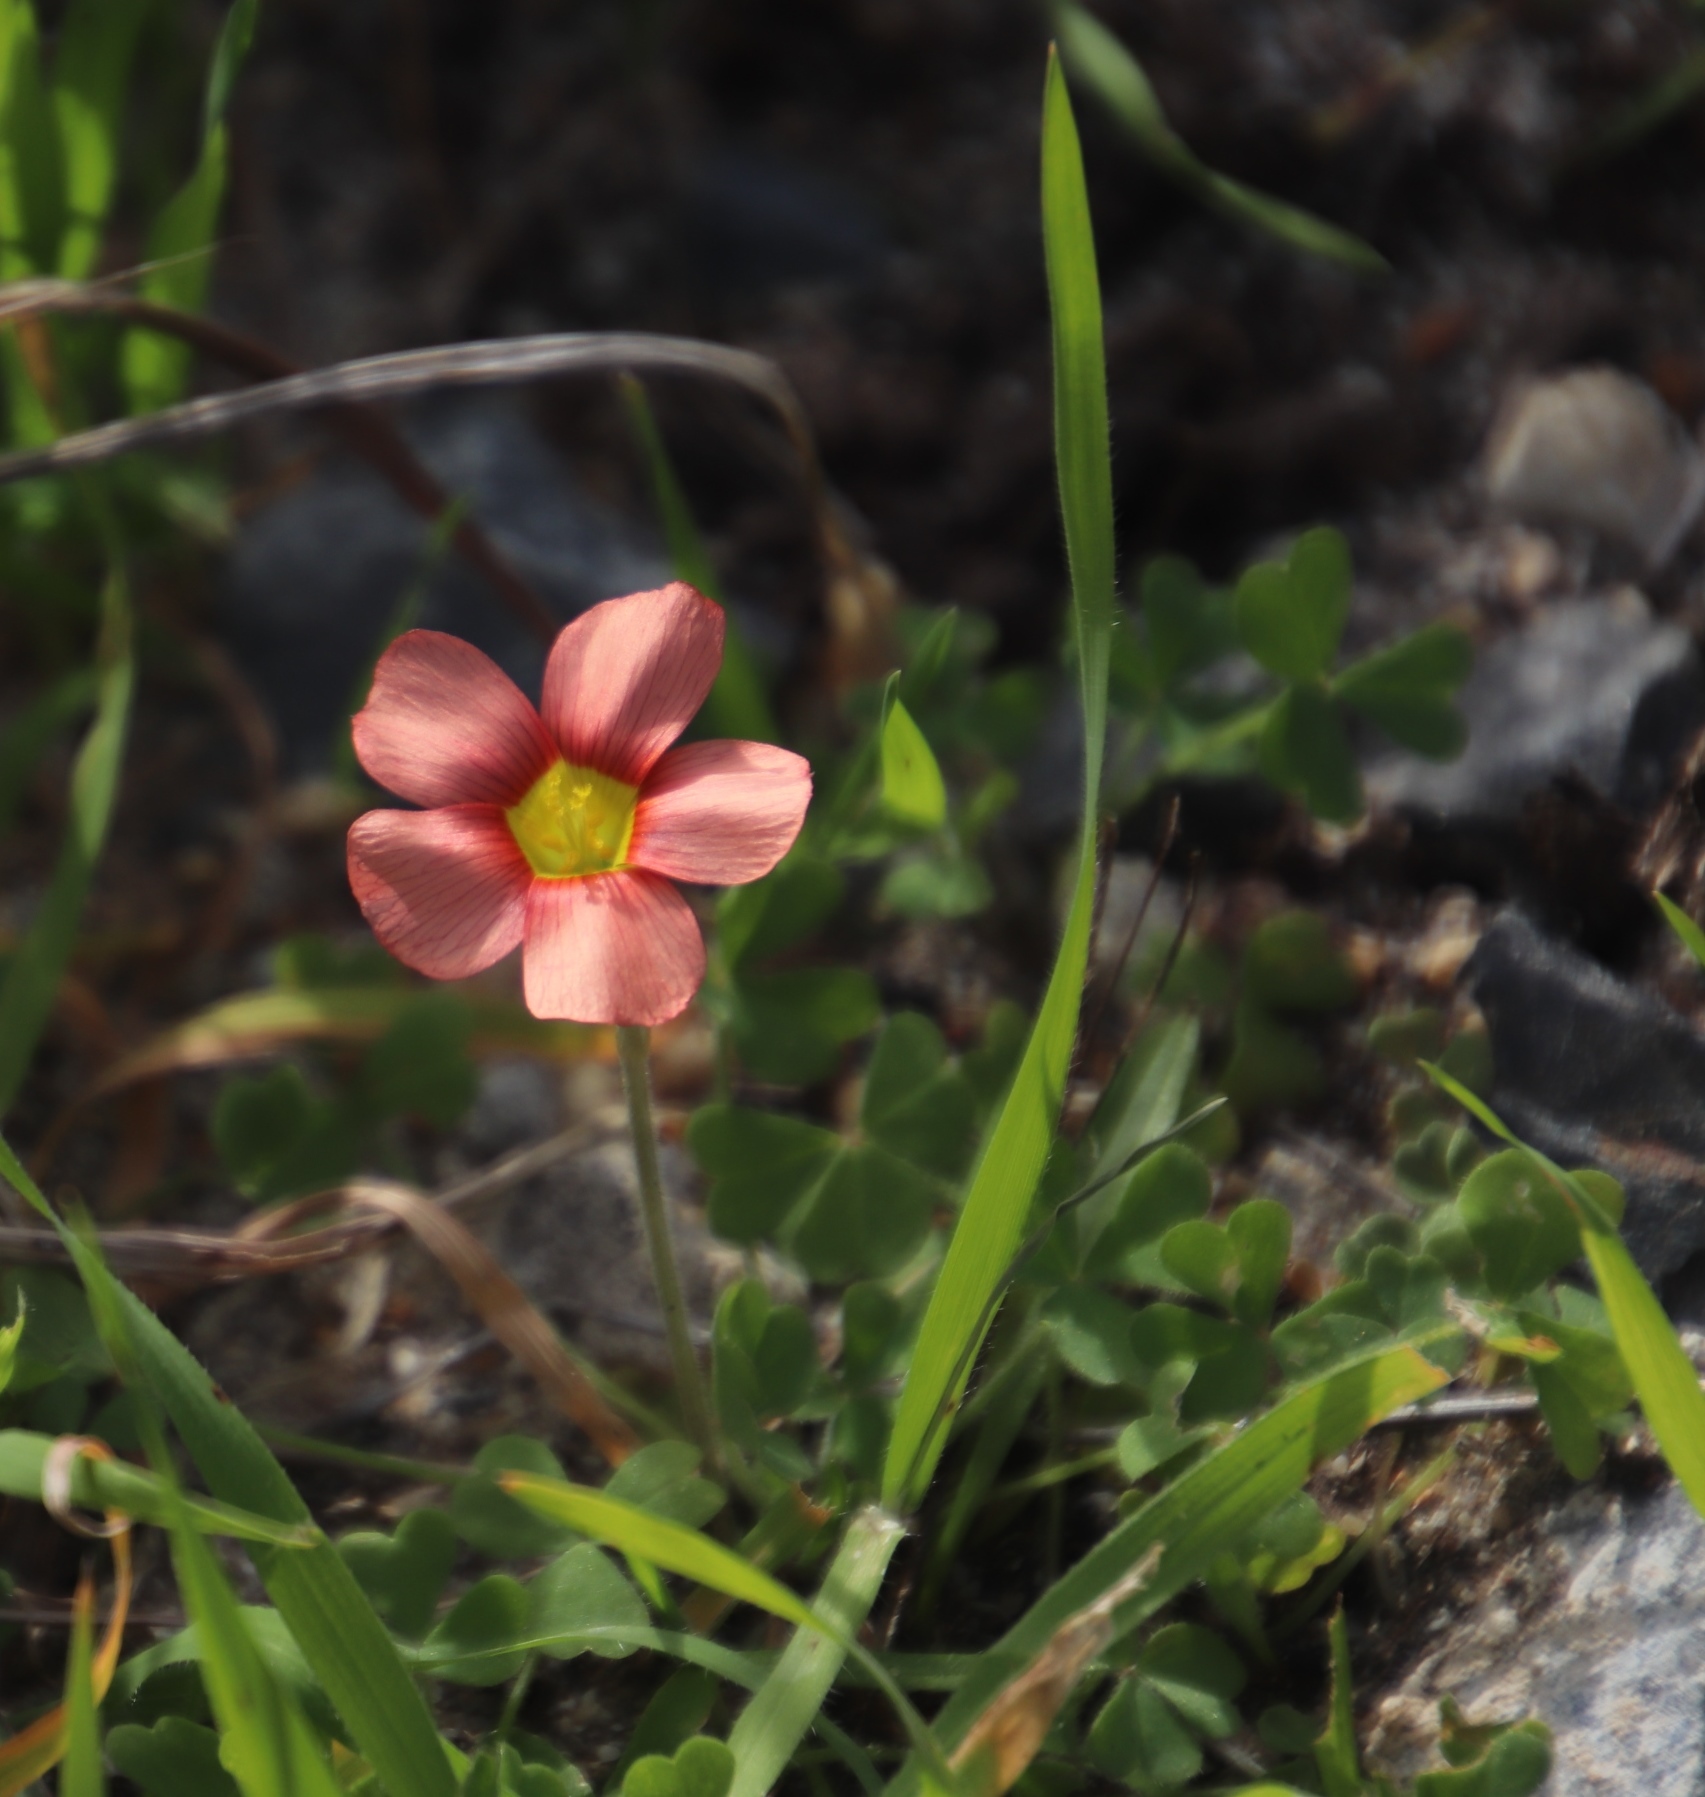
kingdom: Plantae
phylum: Tracheophyta
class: Magnoliopsida
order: Oxalidales
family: Oxalidaceae
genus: Oxalis
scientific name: Oxalis obtusa
